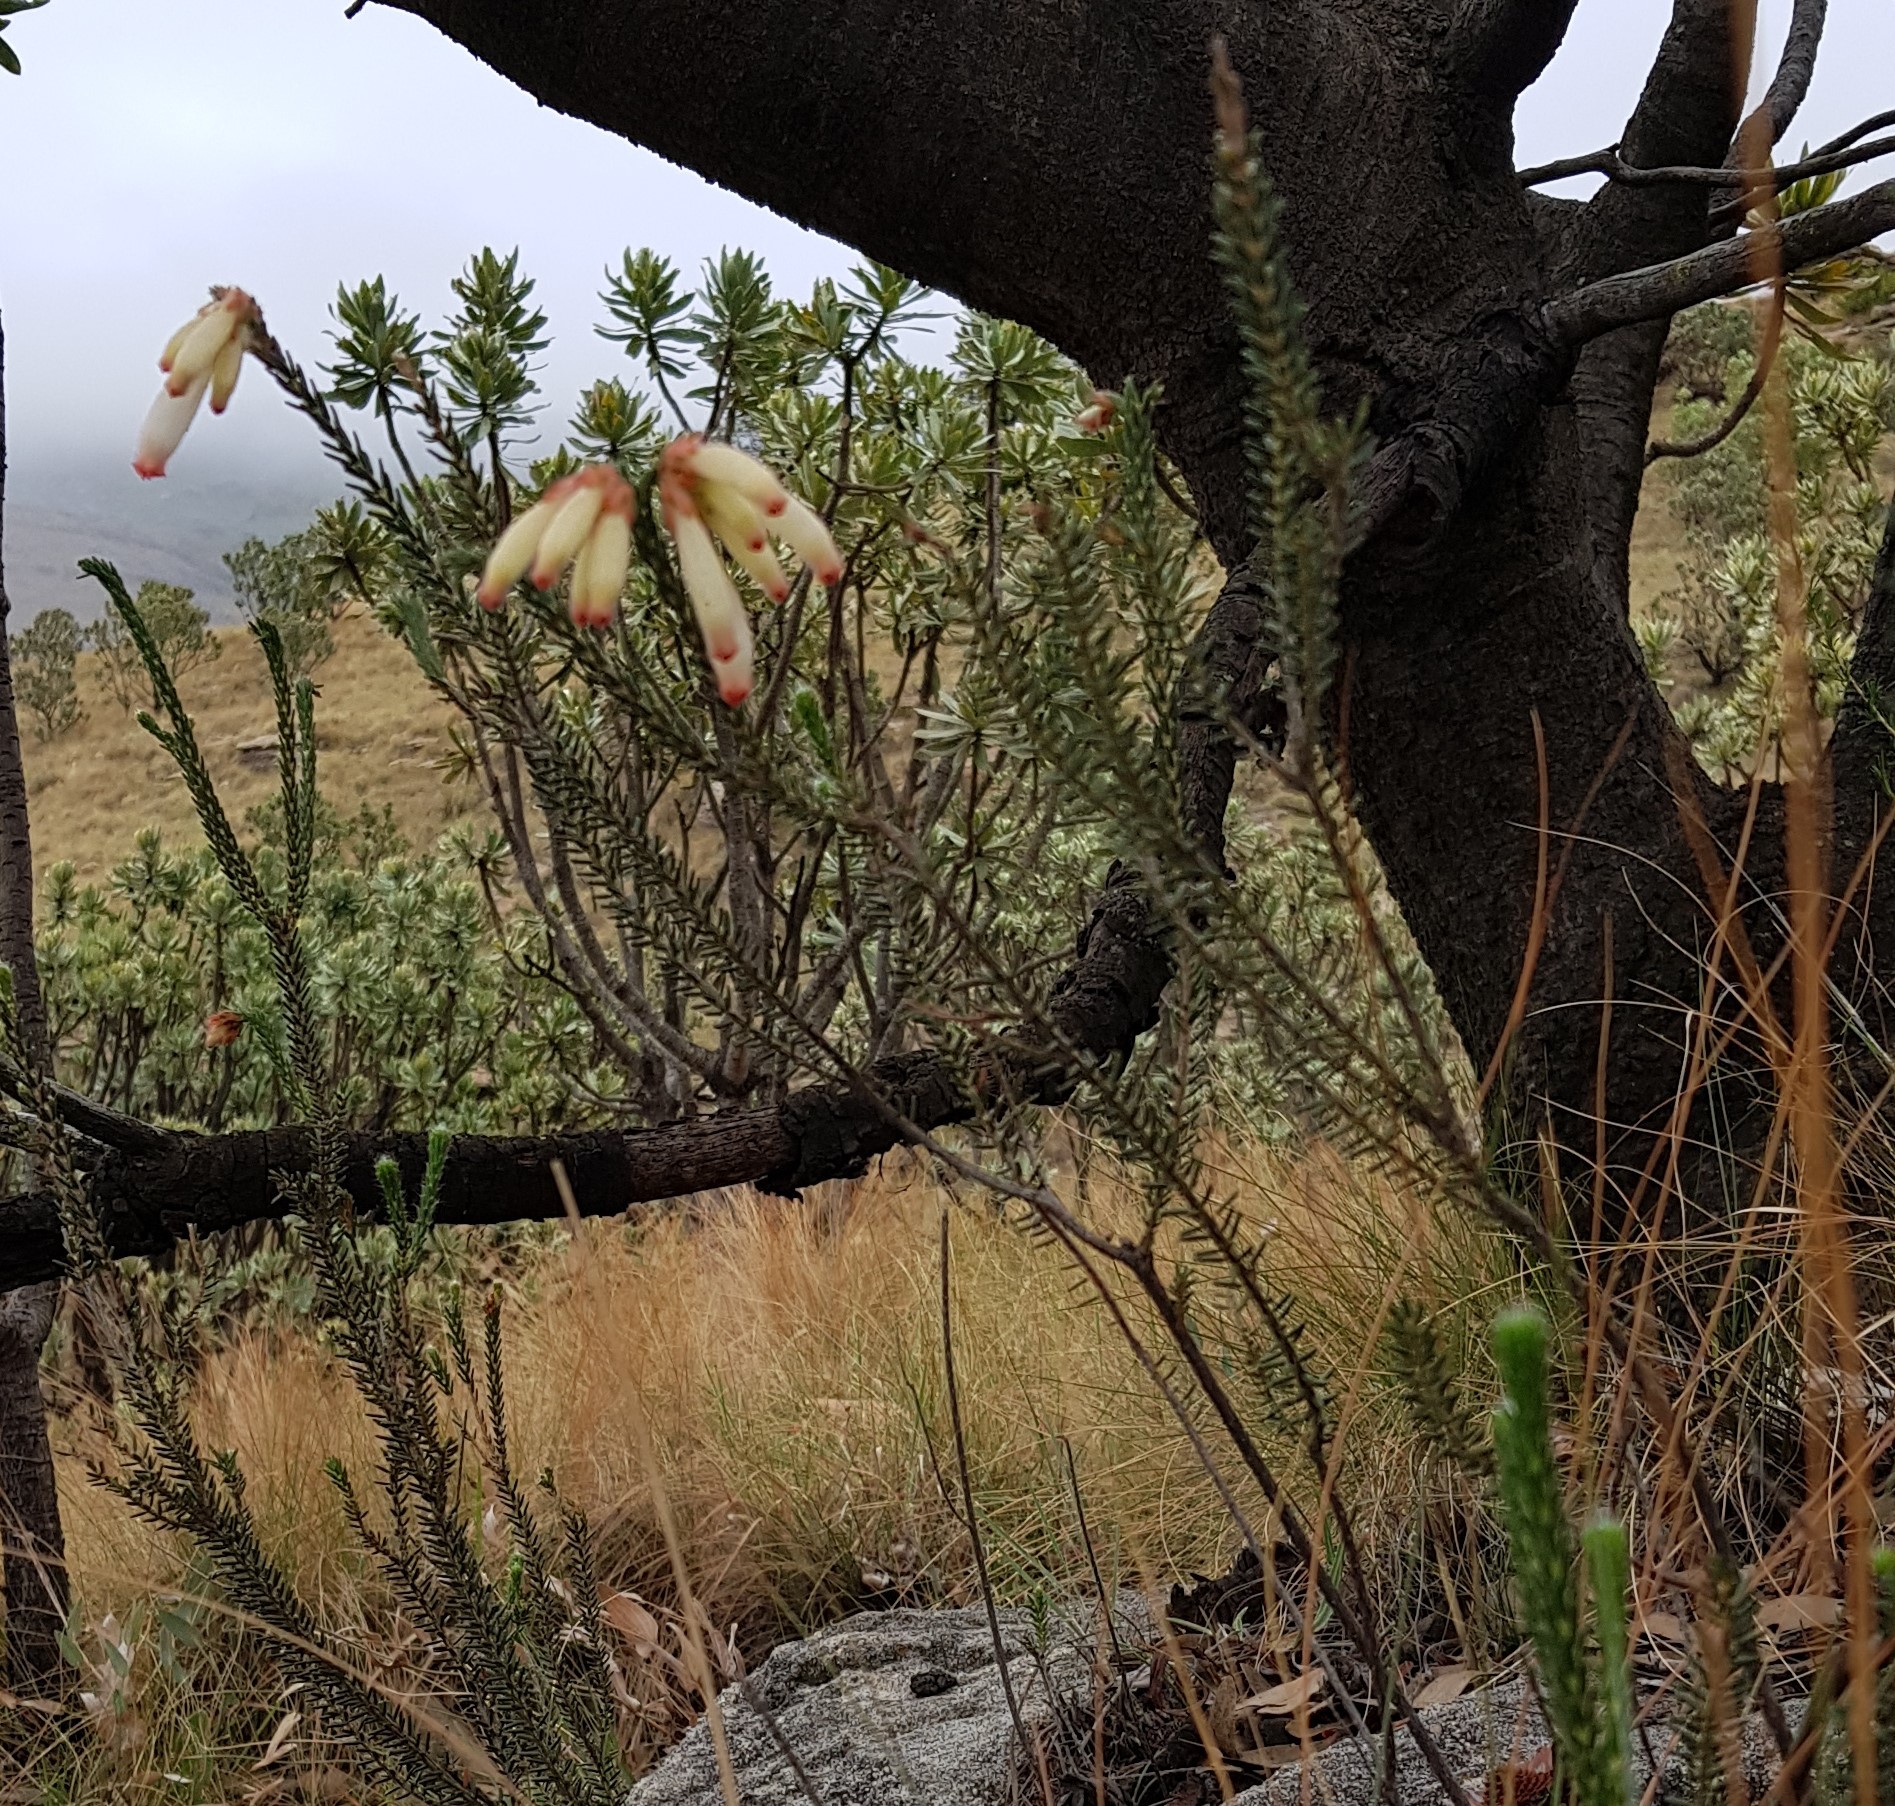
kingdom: Plantae
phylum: Tracheophyta
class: Magnoliopsida
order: Ericales
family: Ericaceae
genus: Erica
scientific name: Erica cerinthoides
